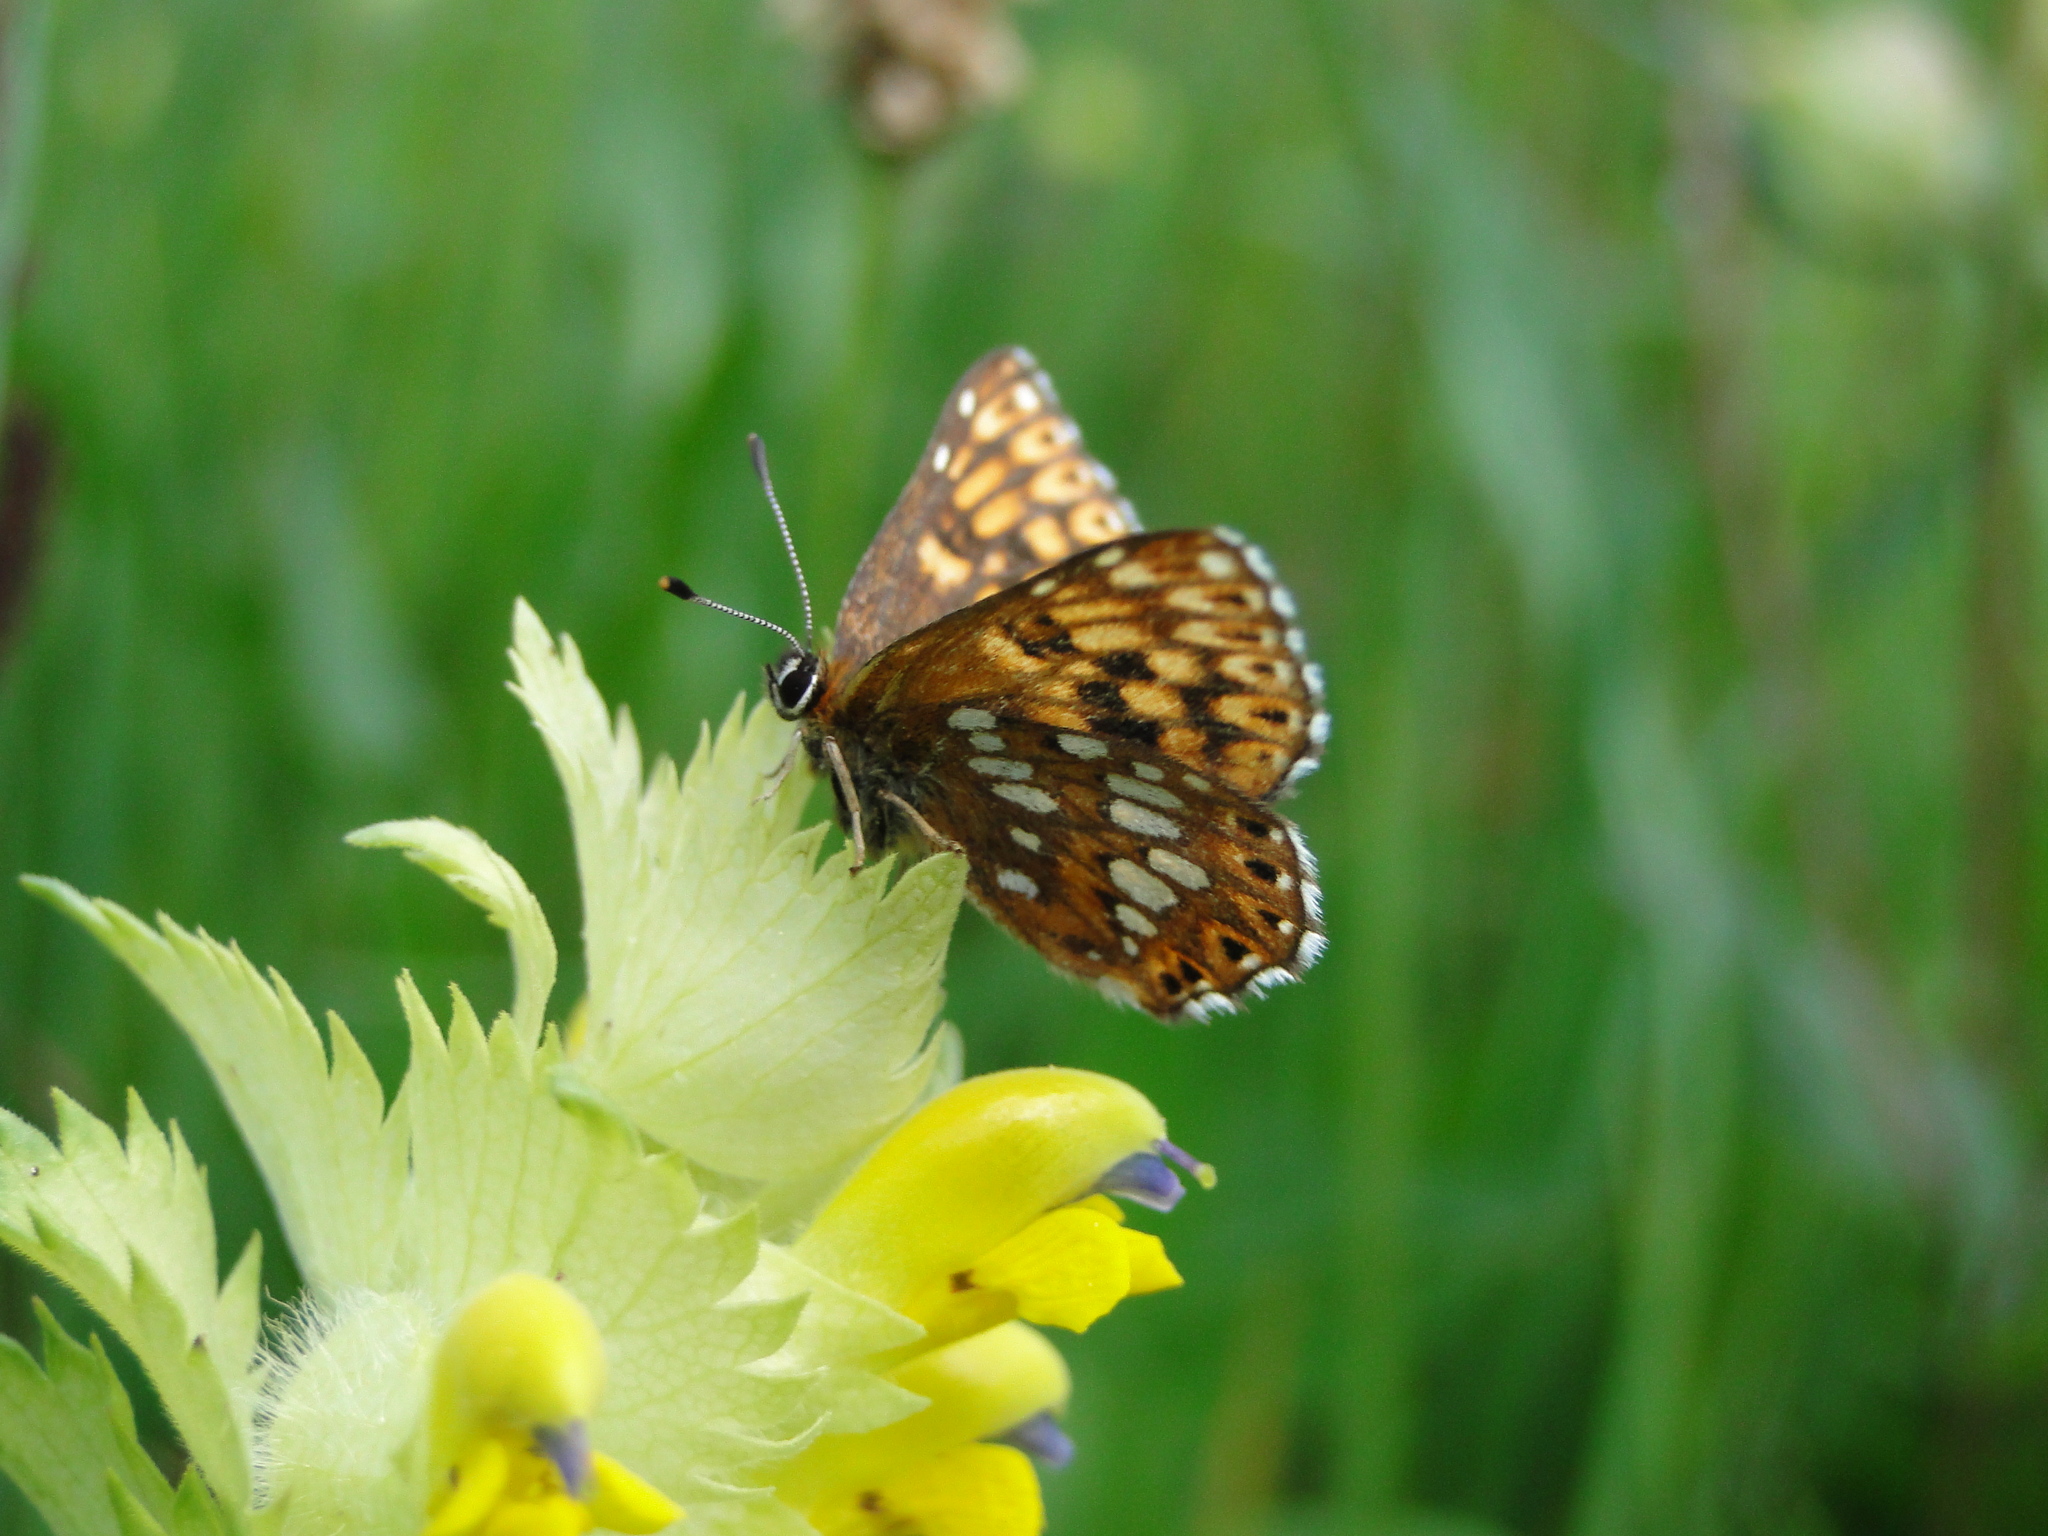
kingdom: Animalia
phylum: Arthropoda
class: Insecta
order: Lepidoptera
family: Riodinidae
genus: Hamearis
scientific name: Hamearis lucina
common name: Duke of burgundy fritillary
